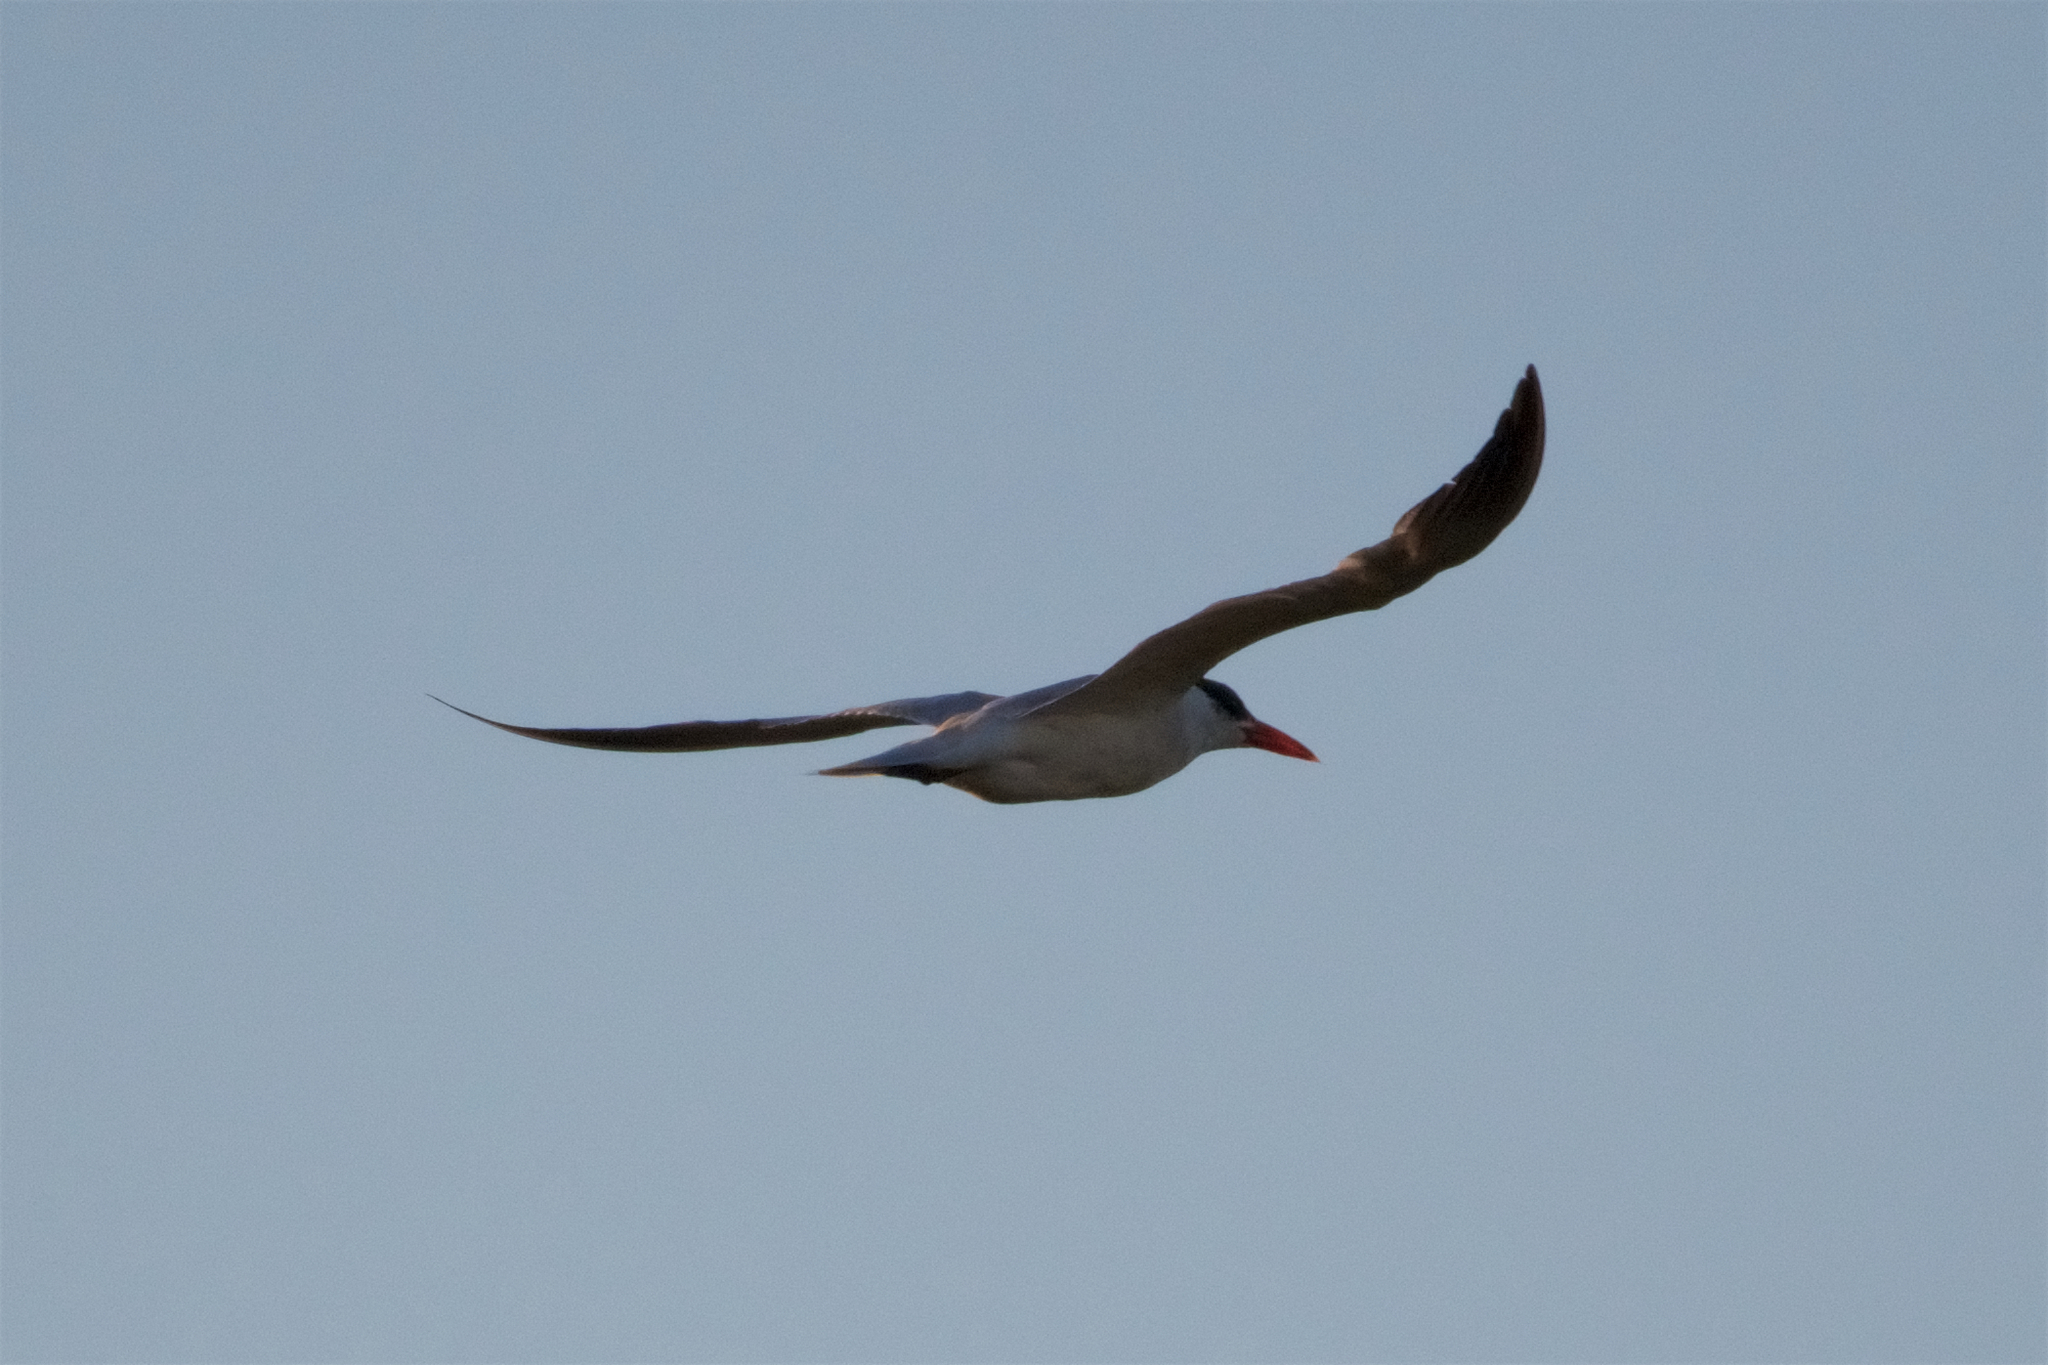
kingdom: Animalia
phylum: Chordata
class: Aves
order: Charadriiformes
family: Laridae
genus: Hydroprogne
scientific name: Hydroprogne caspia
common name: Caspian tern
